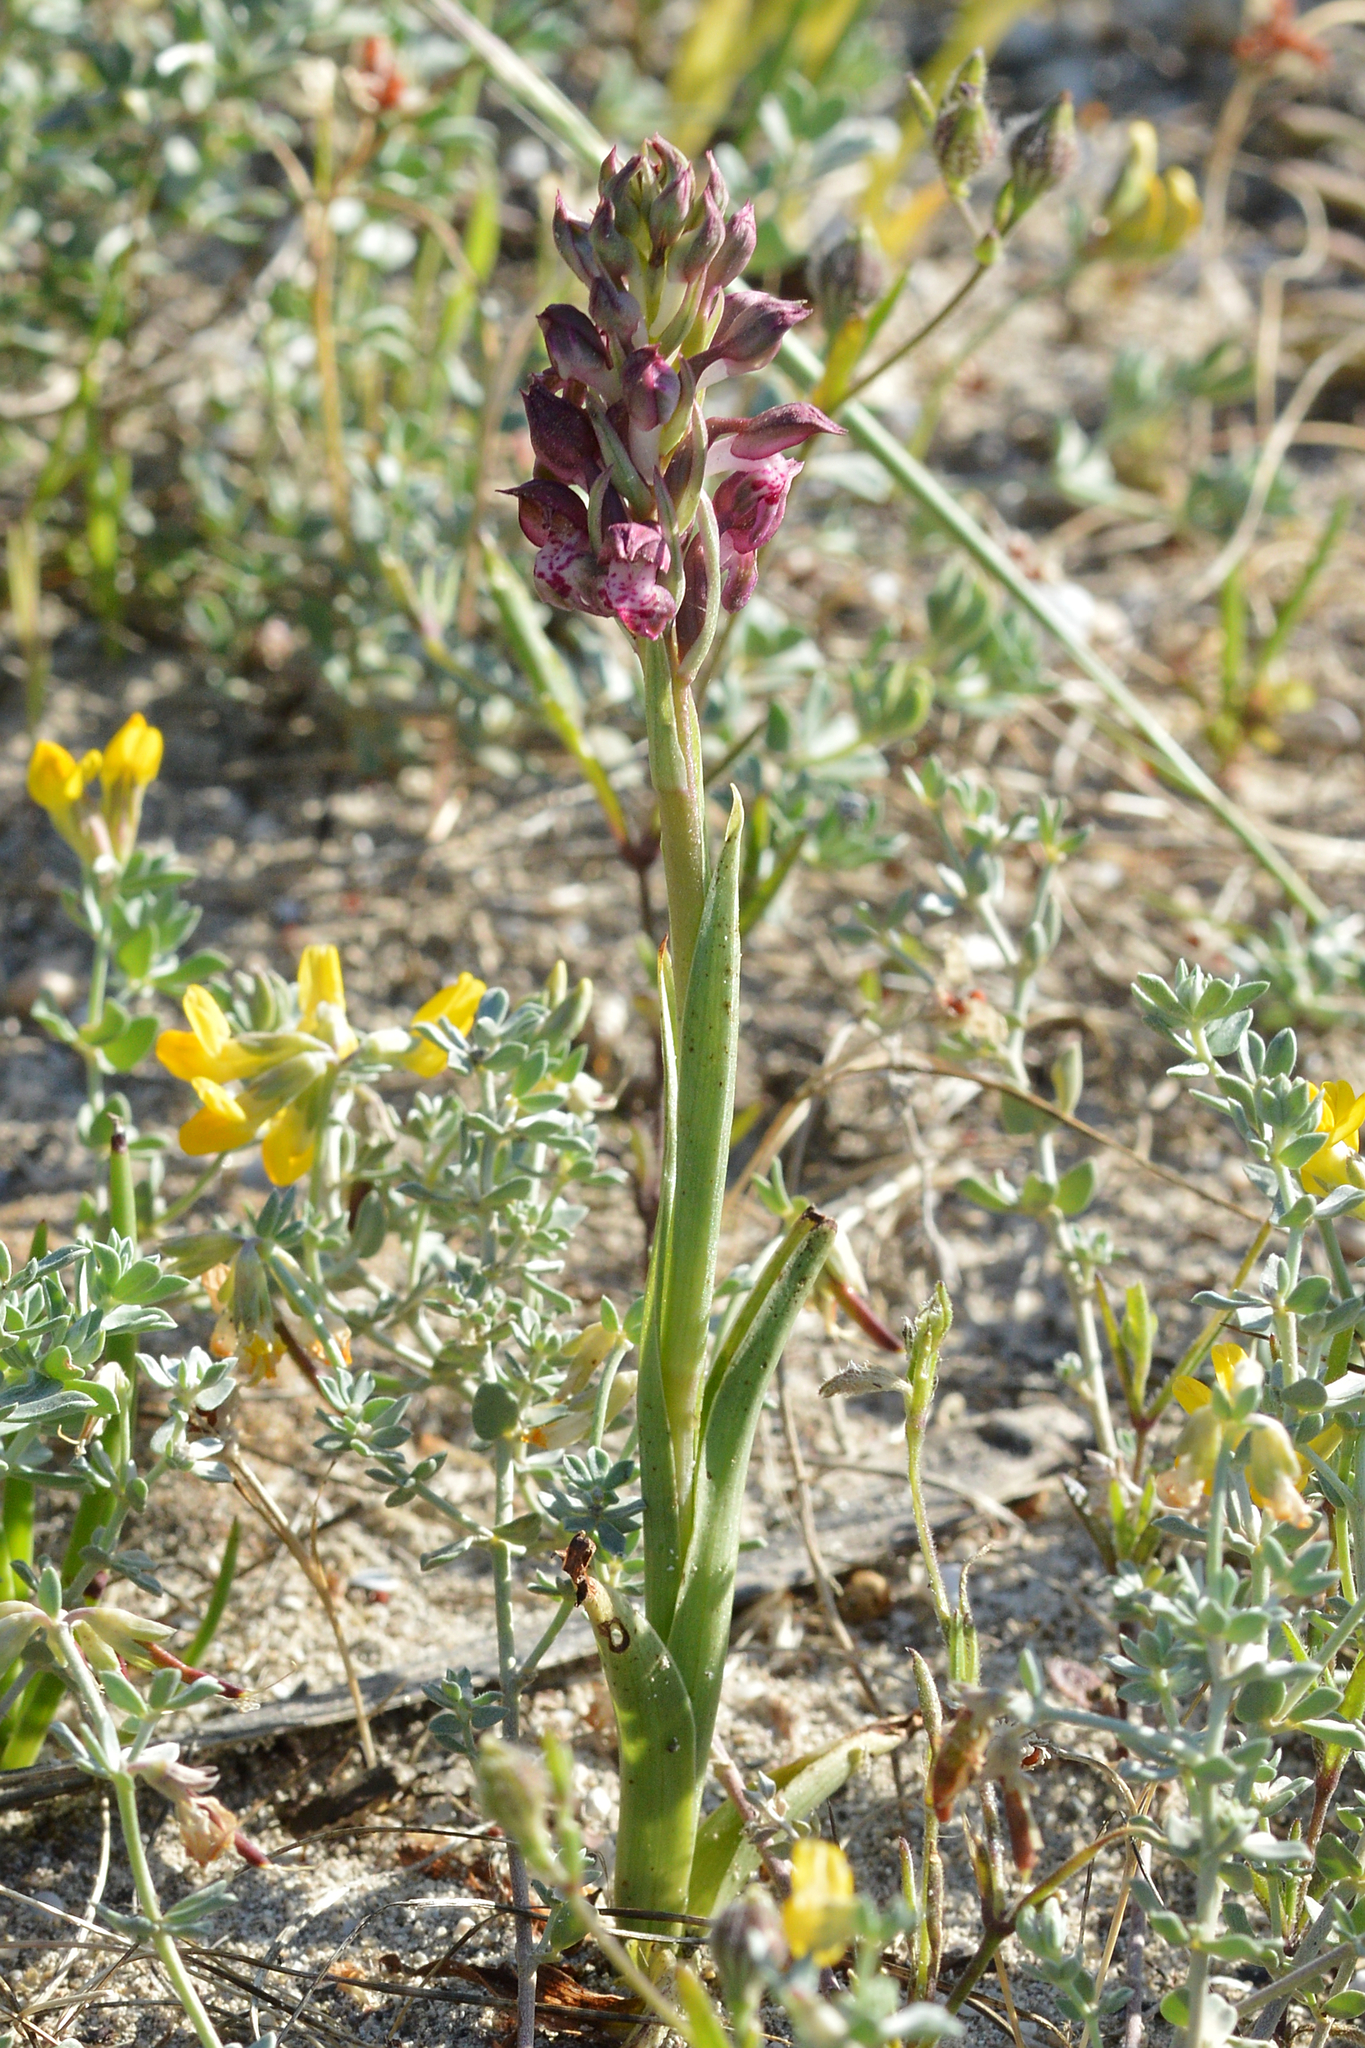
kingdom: Plantae
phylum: Tracheophyta
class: Liliopsida
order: Asparagales
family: Orchidaceae
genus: Anacamptis
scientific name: Anacamptis coriophora
